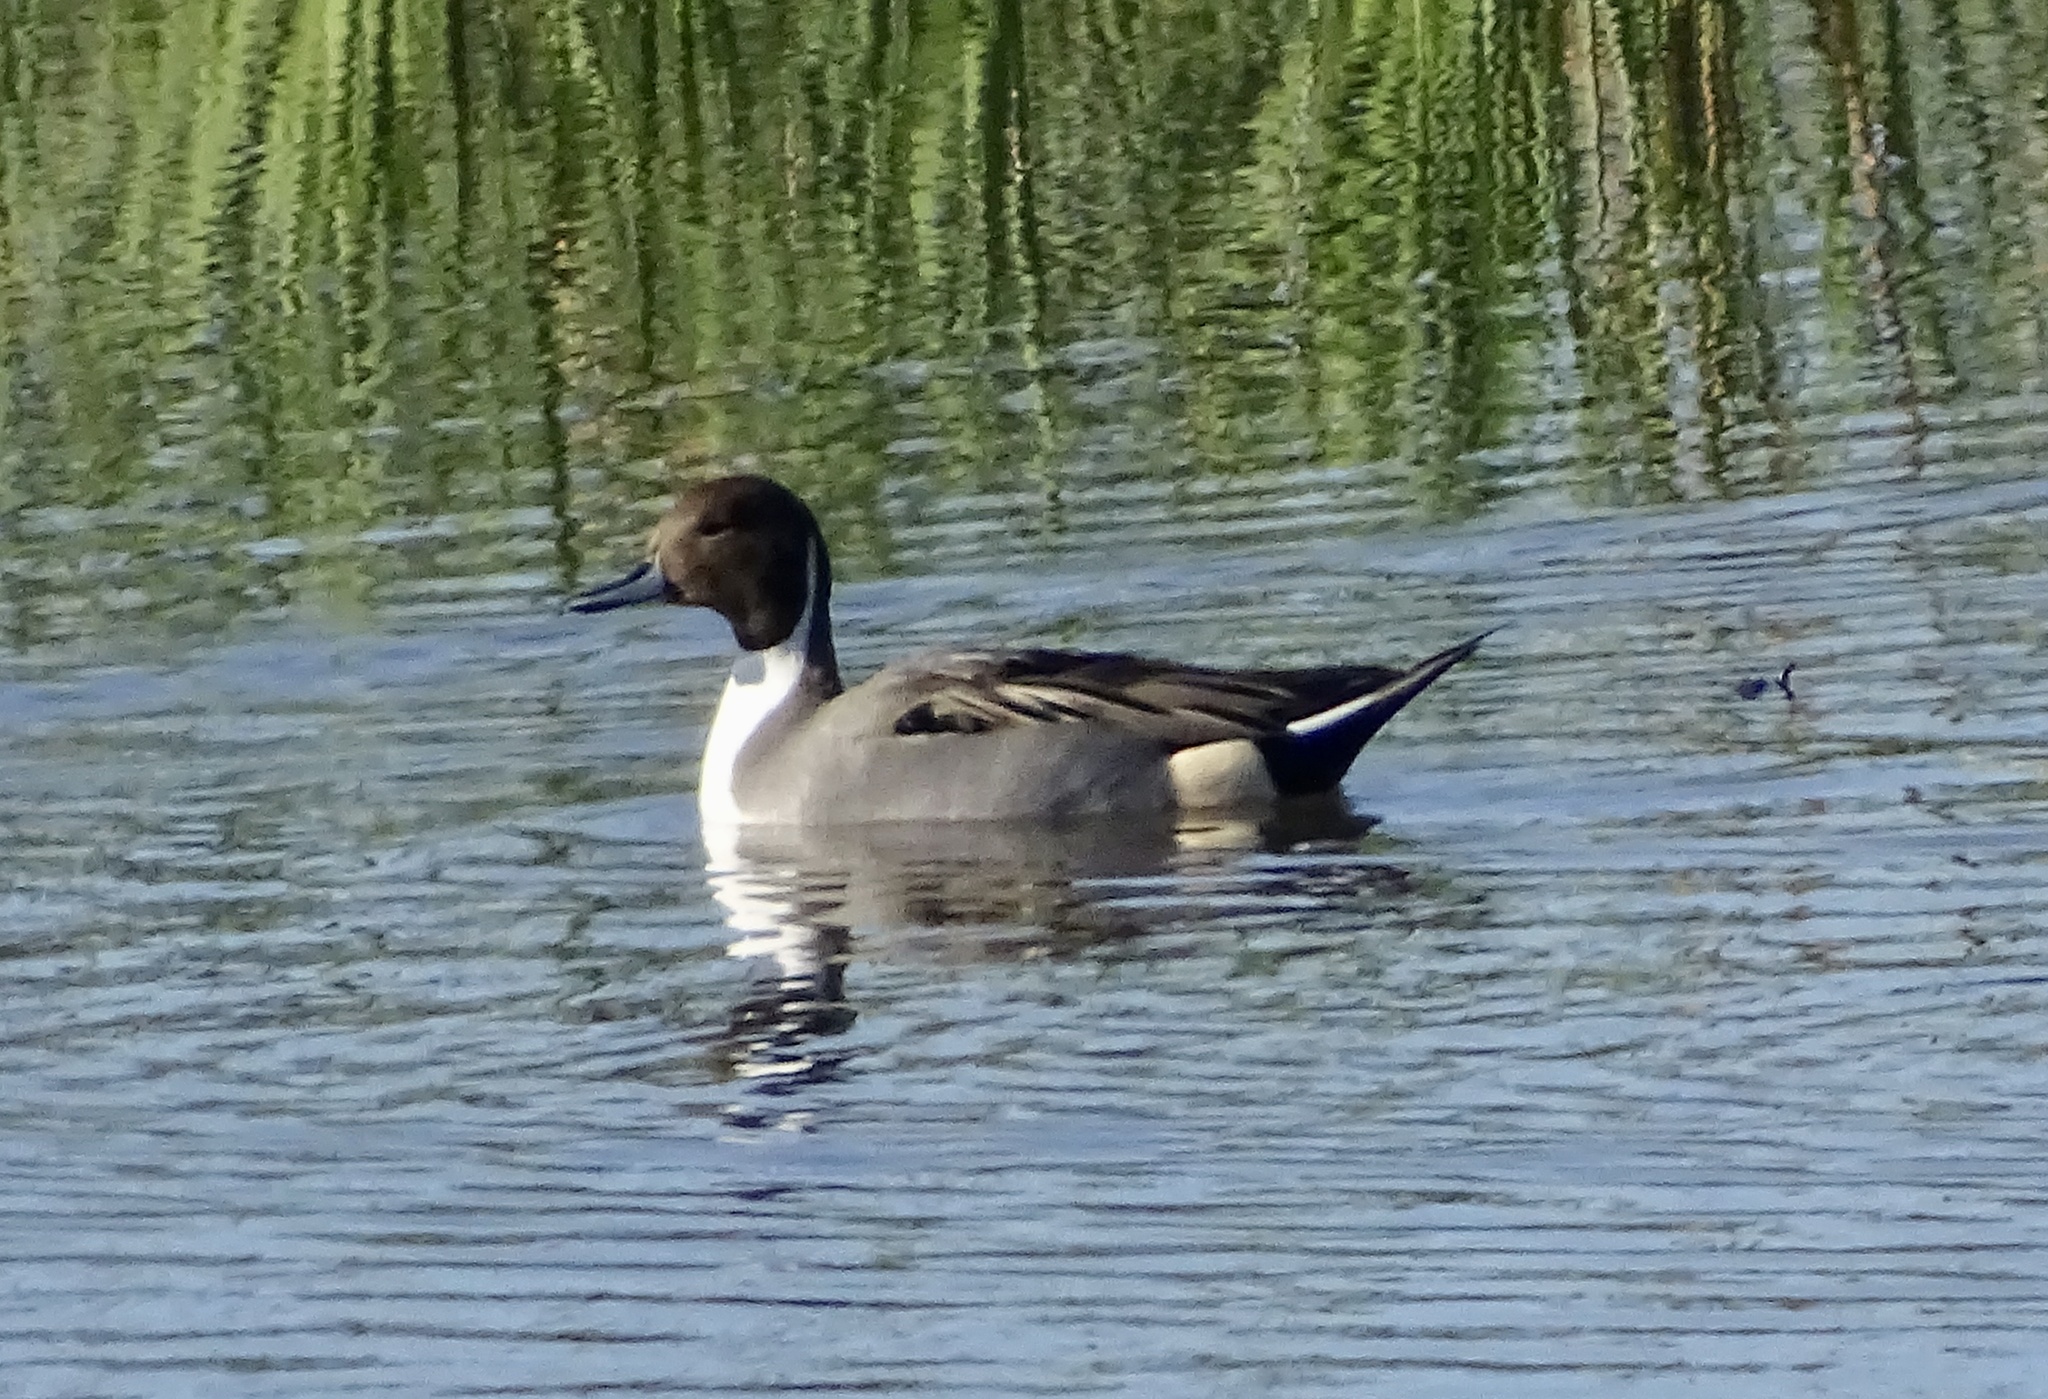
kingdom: Animalia
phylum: Chordata
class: Aves
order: Anseriformes
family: Anatidae
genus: Anas
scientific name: Anas acuta
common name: Northern pintail
